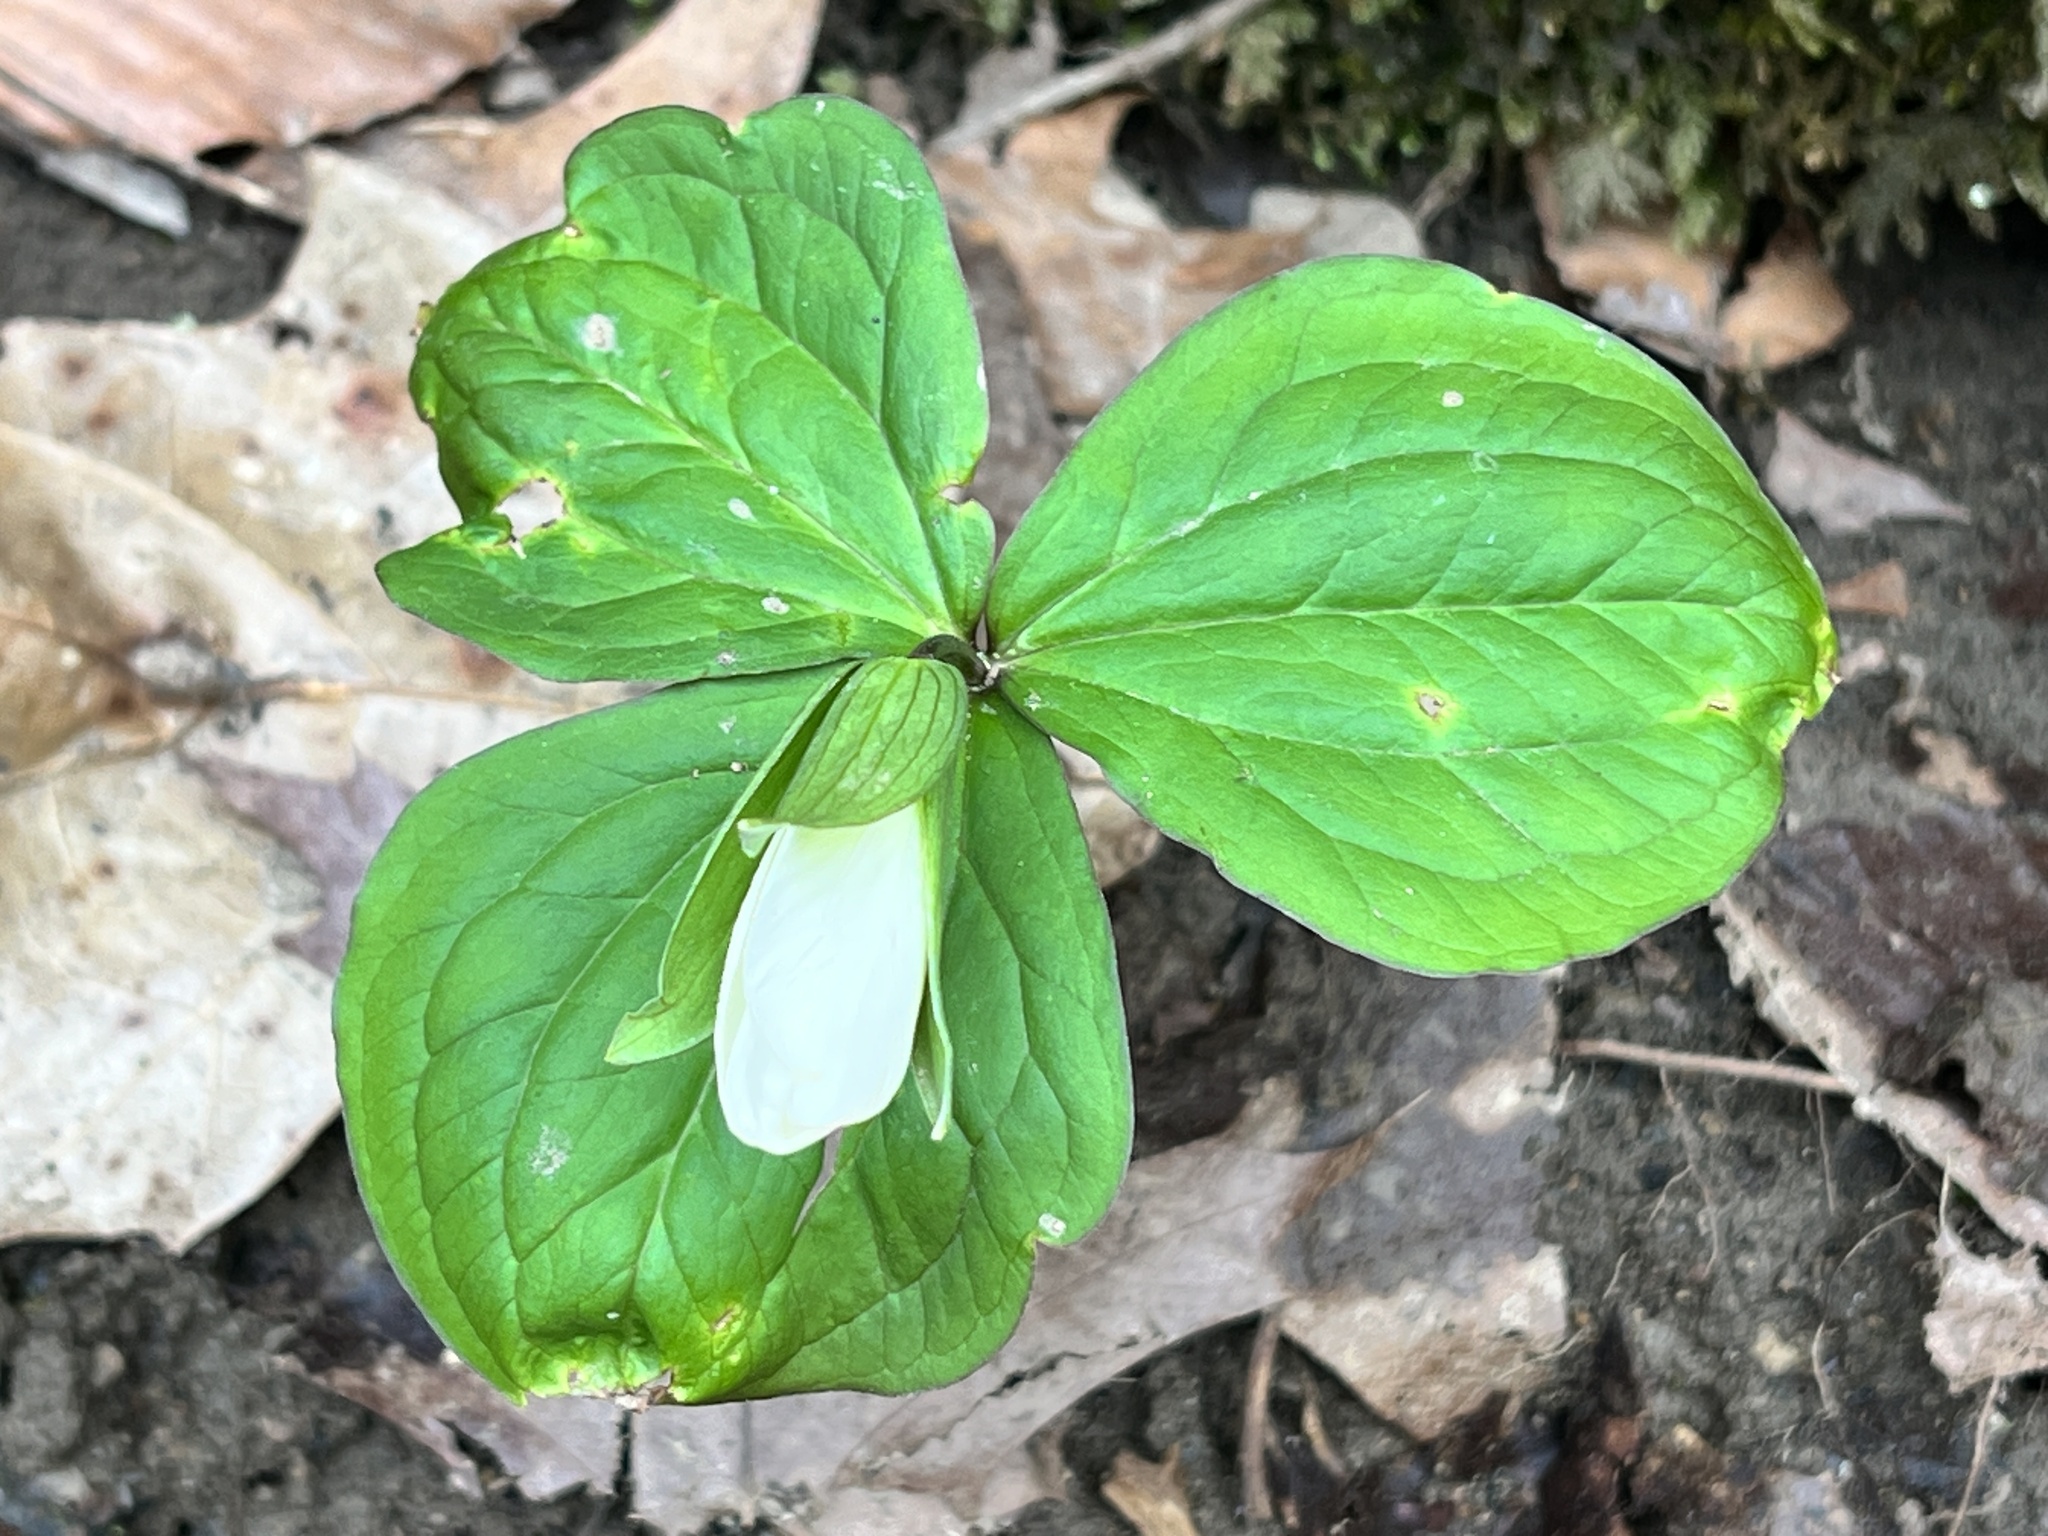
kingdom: Plantae
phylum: Tracheophyta
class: Liliopsida
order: Liliales
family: Melanthiaceae
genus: Trillium
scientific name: Trillium grandiflorum
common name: Great white trillium
